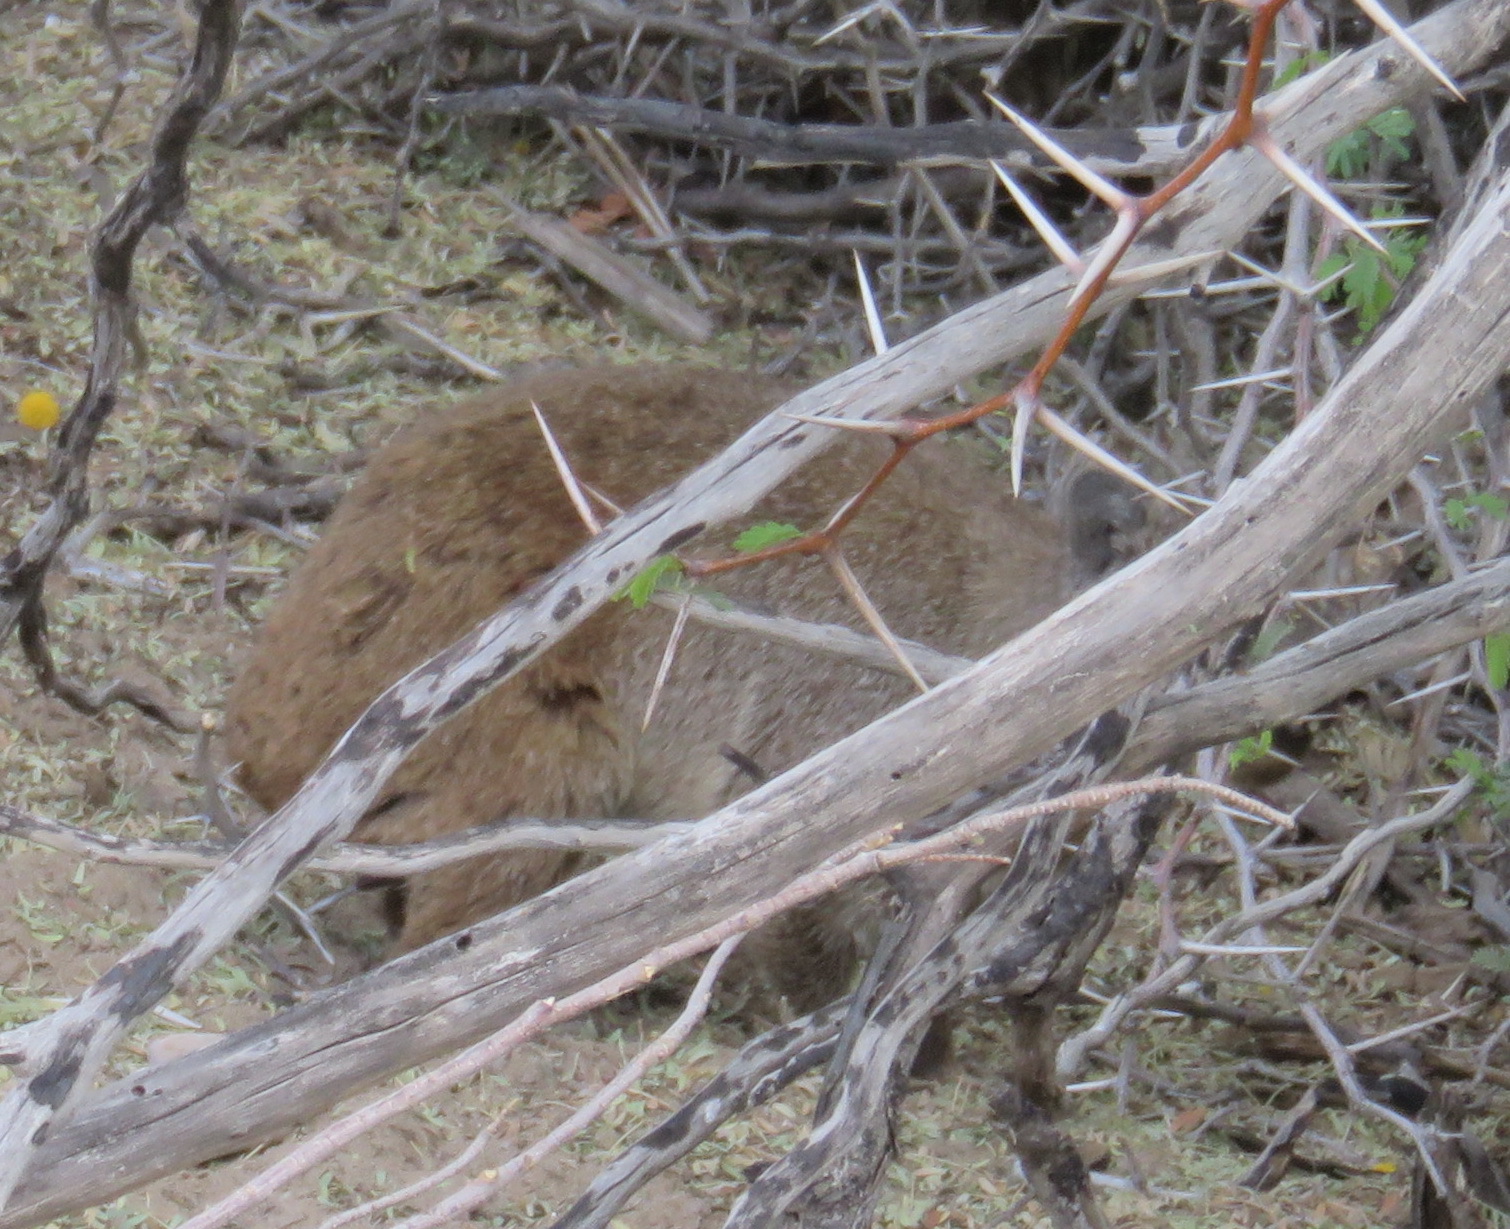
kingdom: Animalia
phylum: Chordata
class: Mammalia
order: Hyracoidea
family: Procaviidae
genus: Procavia
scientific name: Procavia capensis
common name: Rock hyrax
